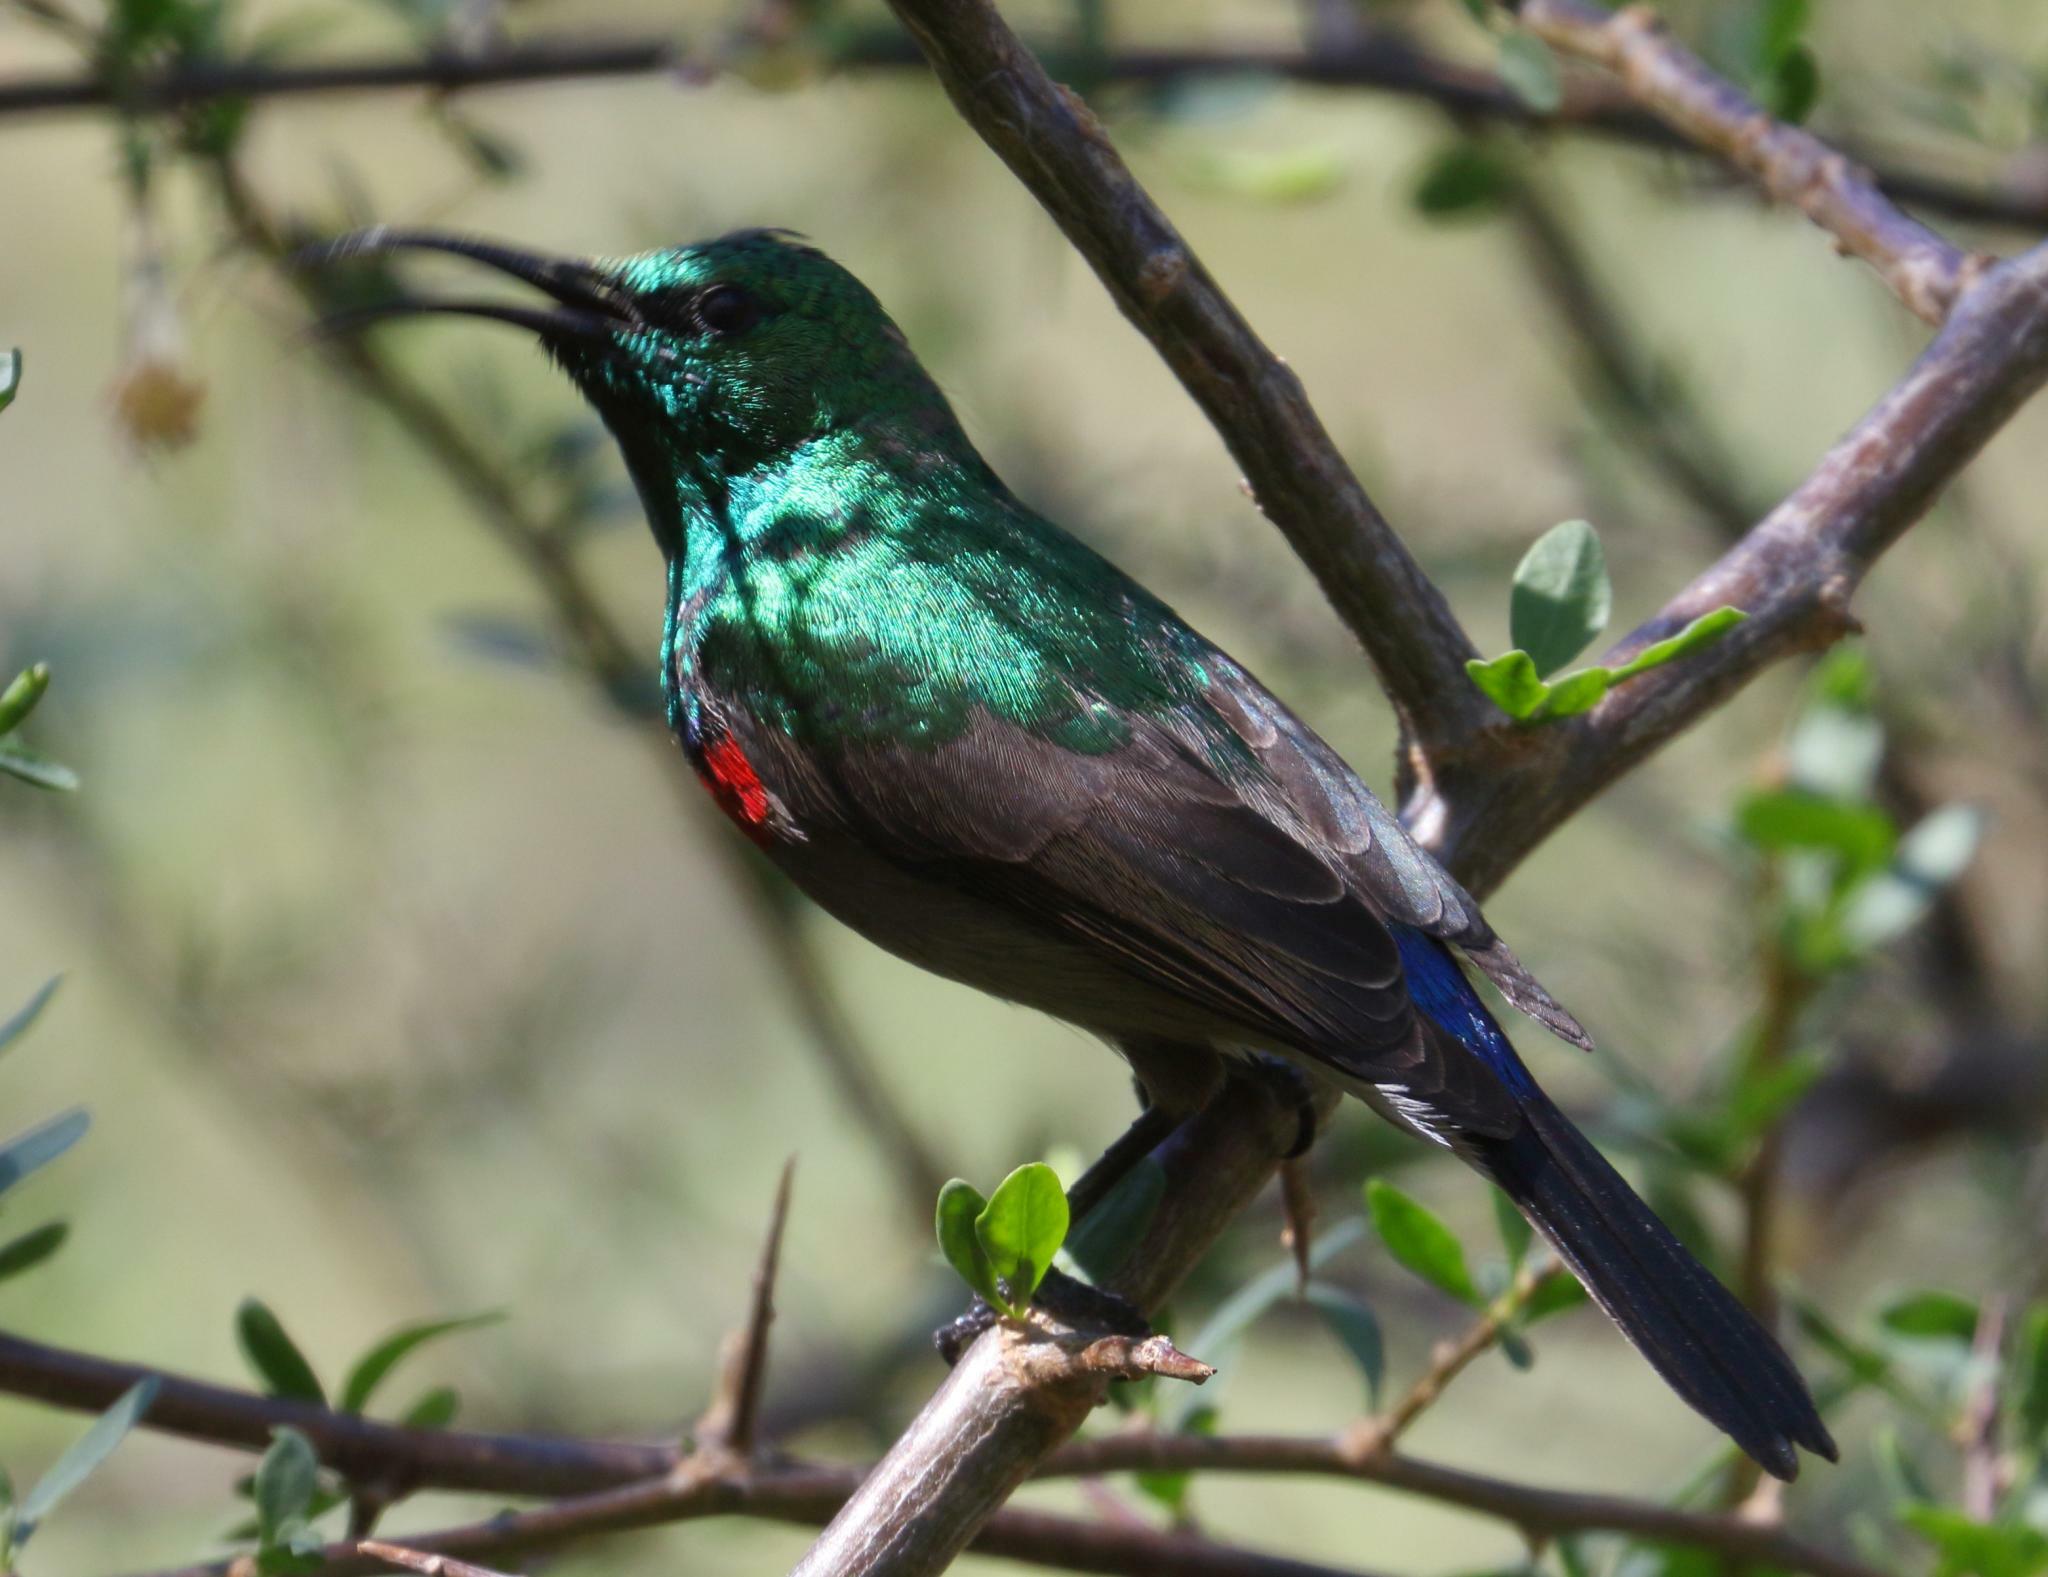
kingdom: Animalia
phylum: Chordata
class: Aves
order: Passeriformes
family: Nectariniidae
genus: Cinnyris
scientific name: Cinnyris chalybeus
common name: Southern double-collared sunbird
